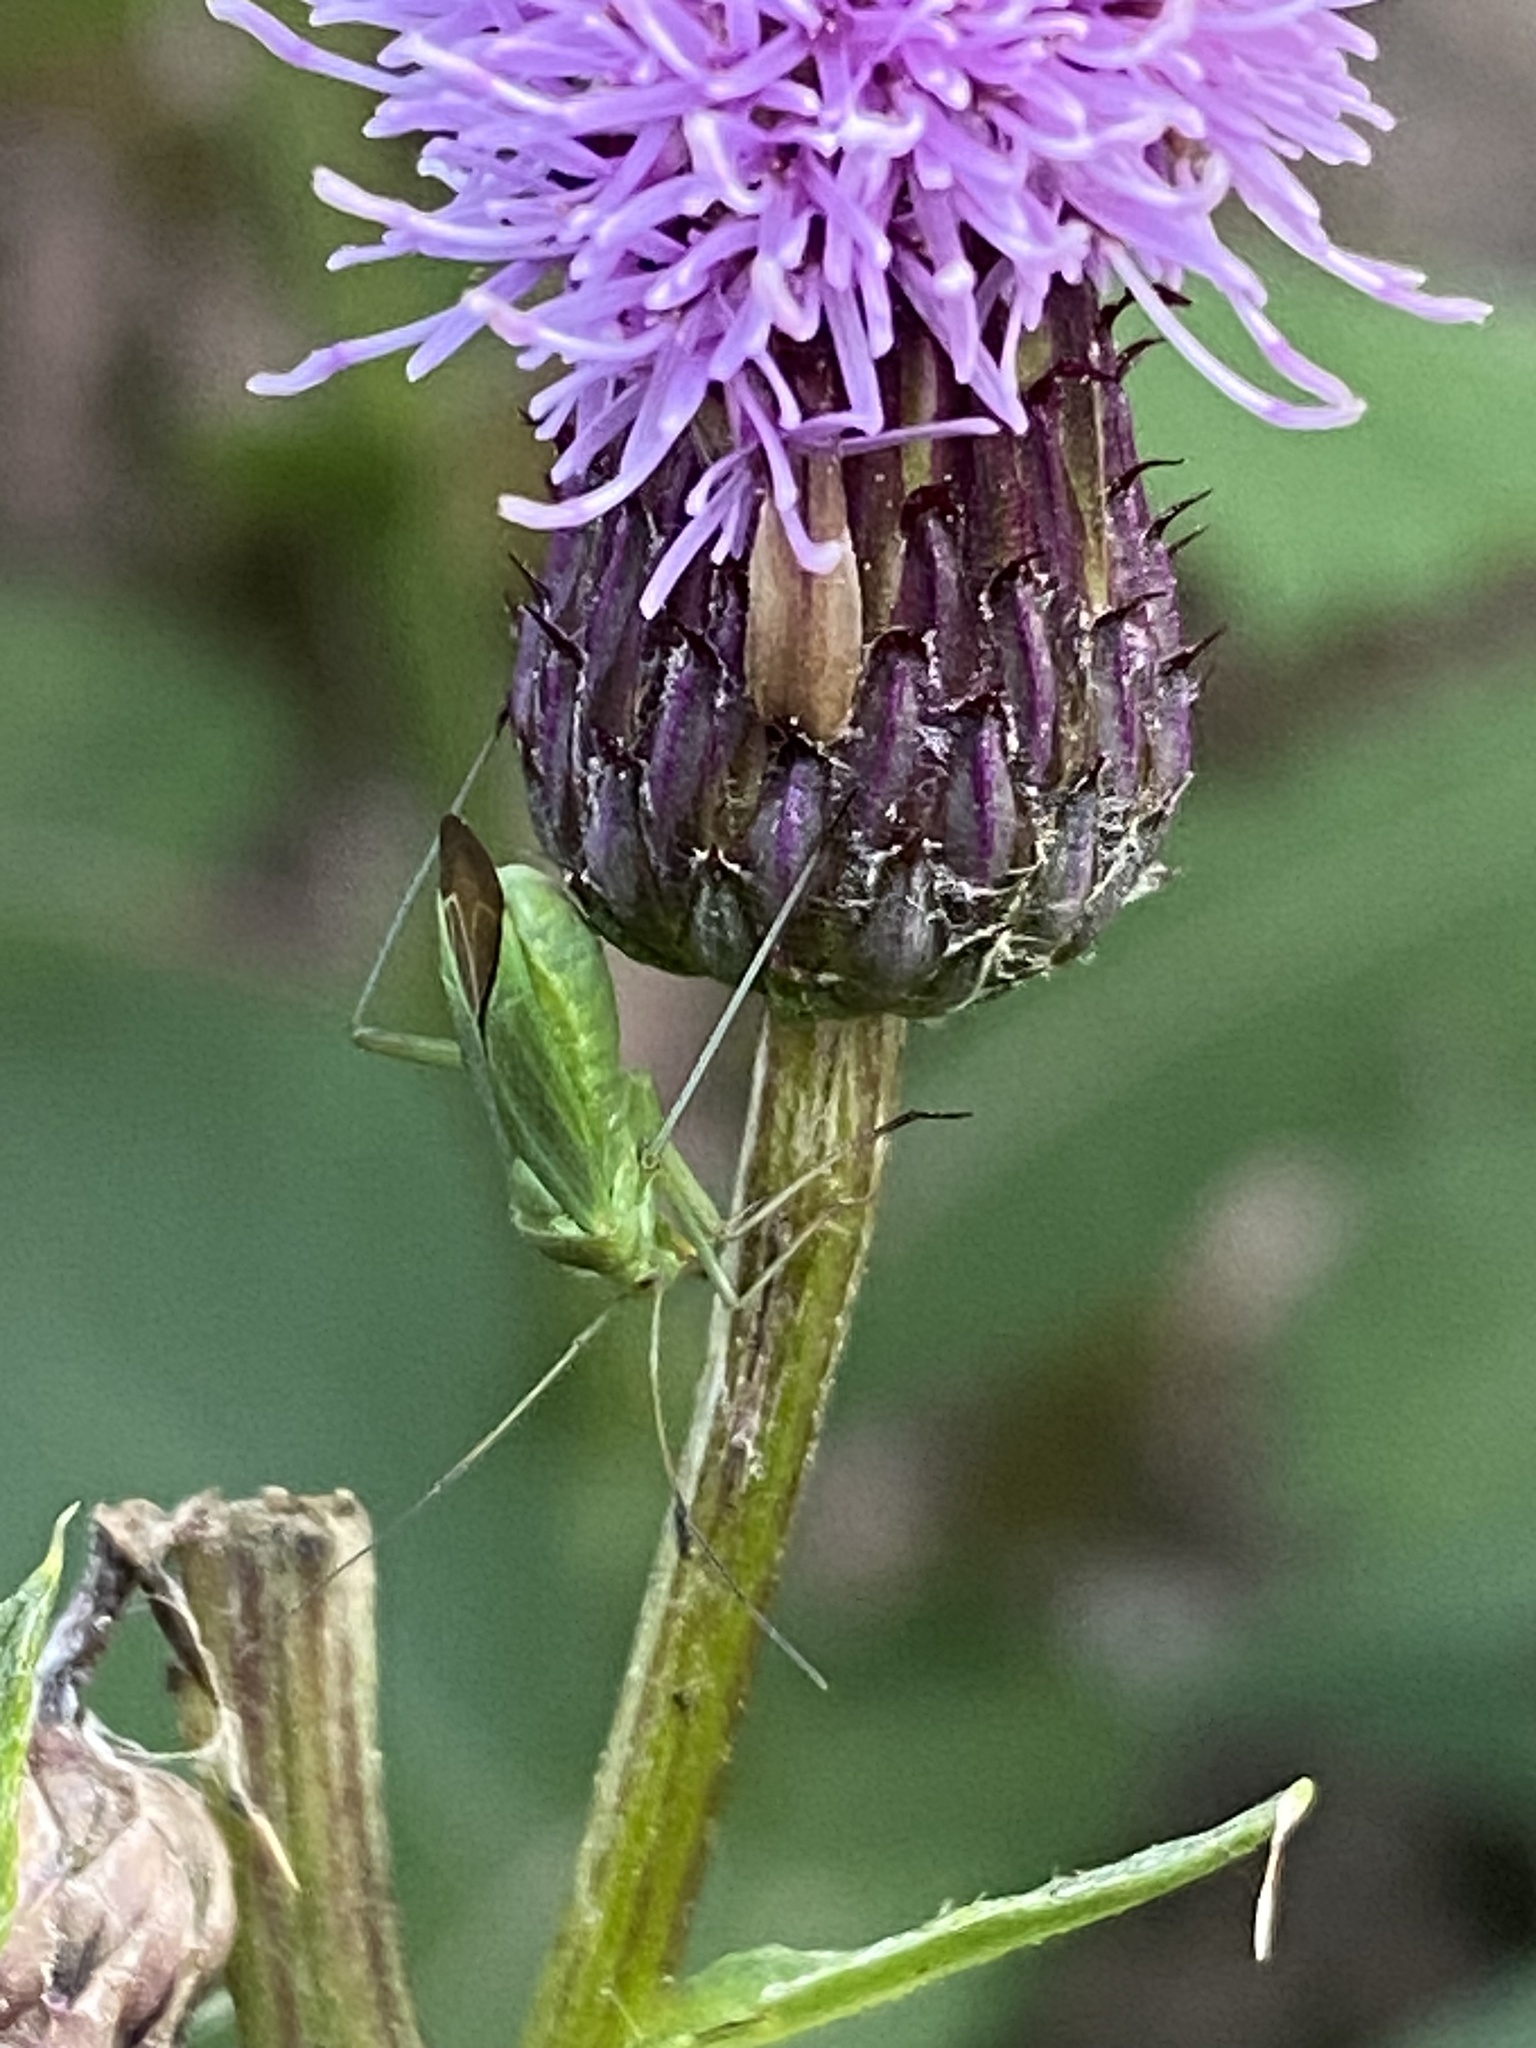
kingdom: Animalia
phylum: Arthropoda
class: Insecta
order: Hemiptera
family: Miridae
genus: Calocoris
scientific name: Calocoris affinis
